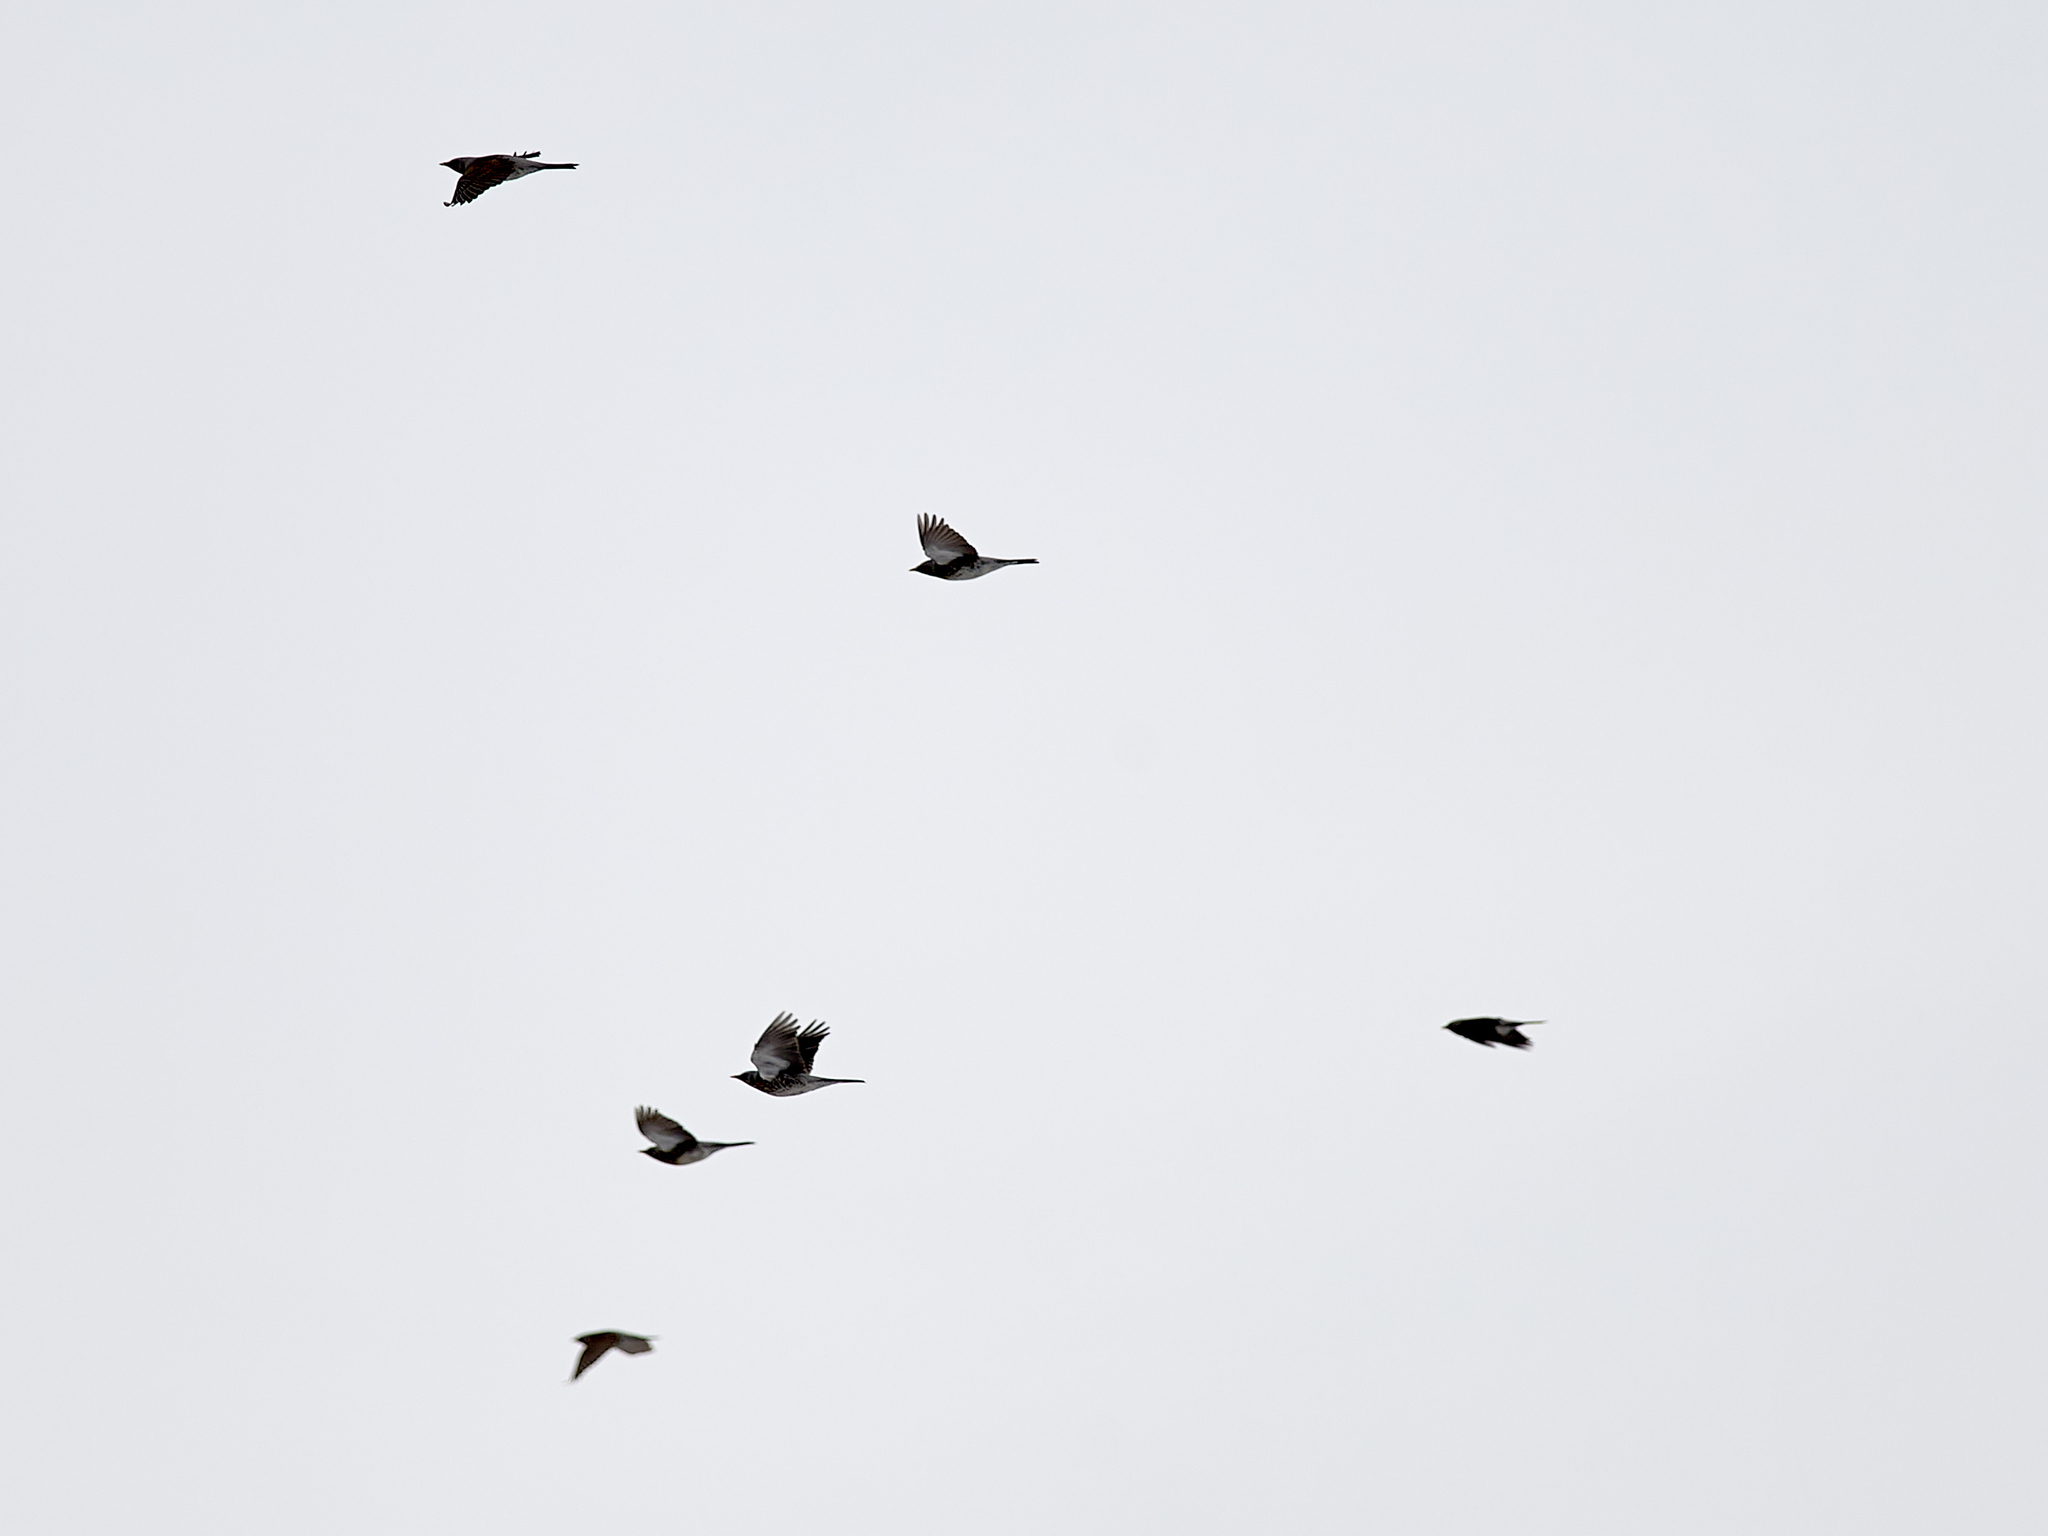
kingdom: Animalia
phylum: Chordata
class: Aves
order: Passeriformes
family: Turdidae
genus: Turdus
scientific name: Turdus pilaris
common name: Fieldfare
